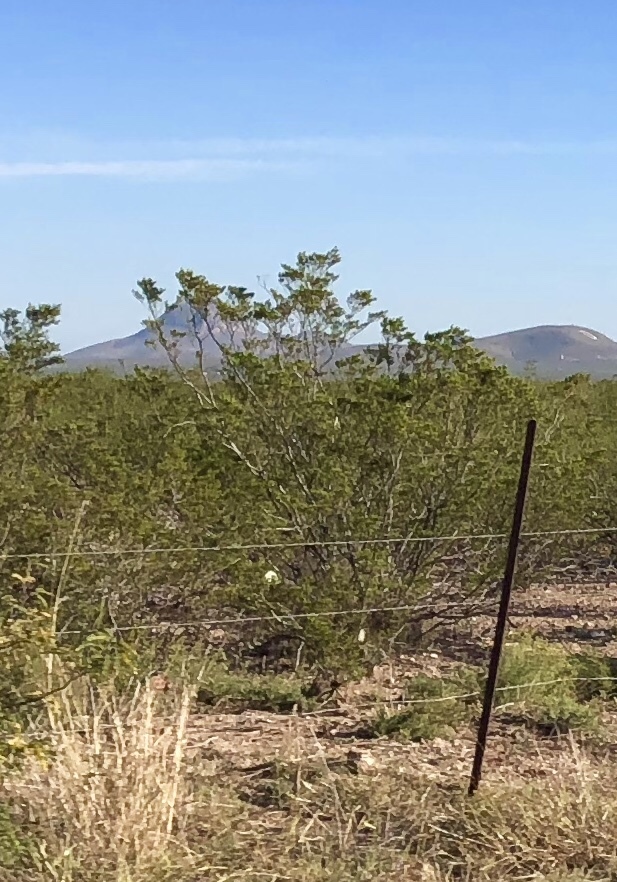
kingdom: Plantae
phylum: Tracheophyta
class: Magnoliopsida
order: Zygophyllales
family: Zygophyllaceae
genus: Larrea
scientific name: Larrea tridentata
